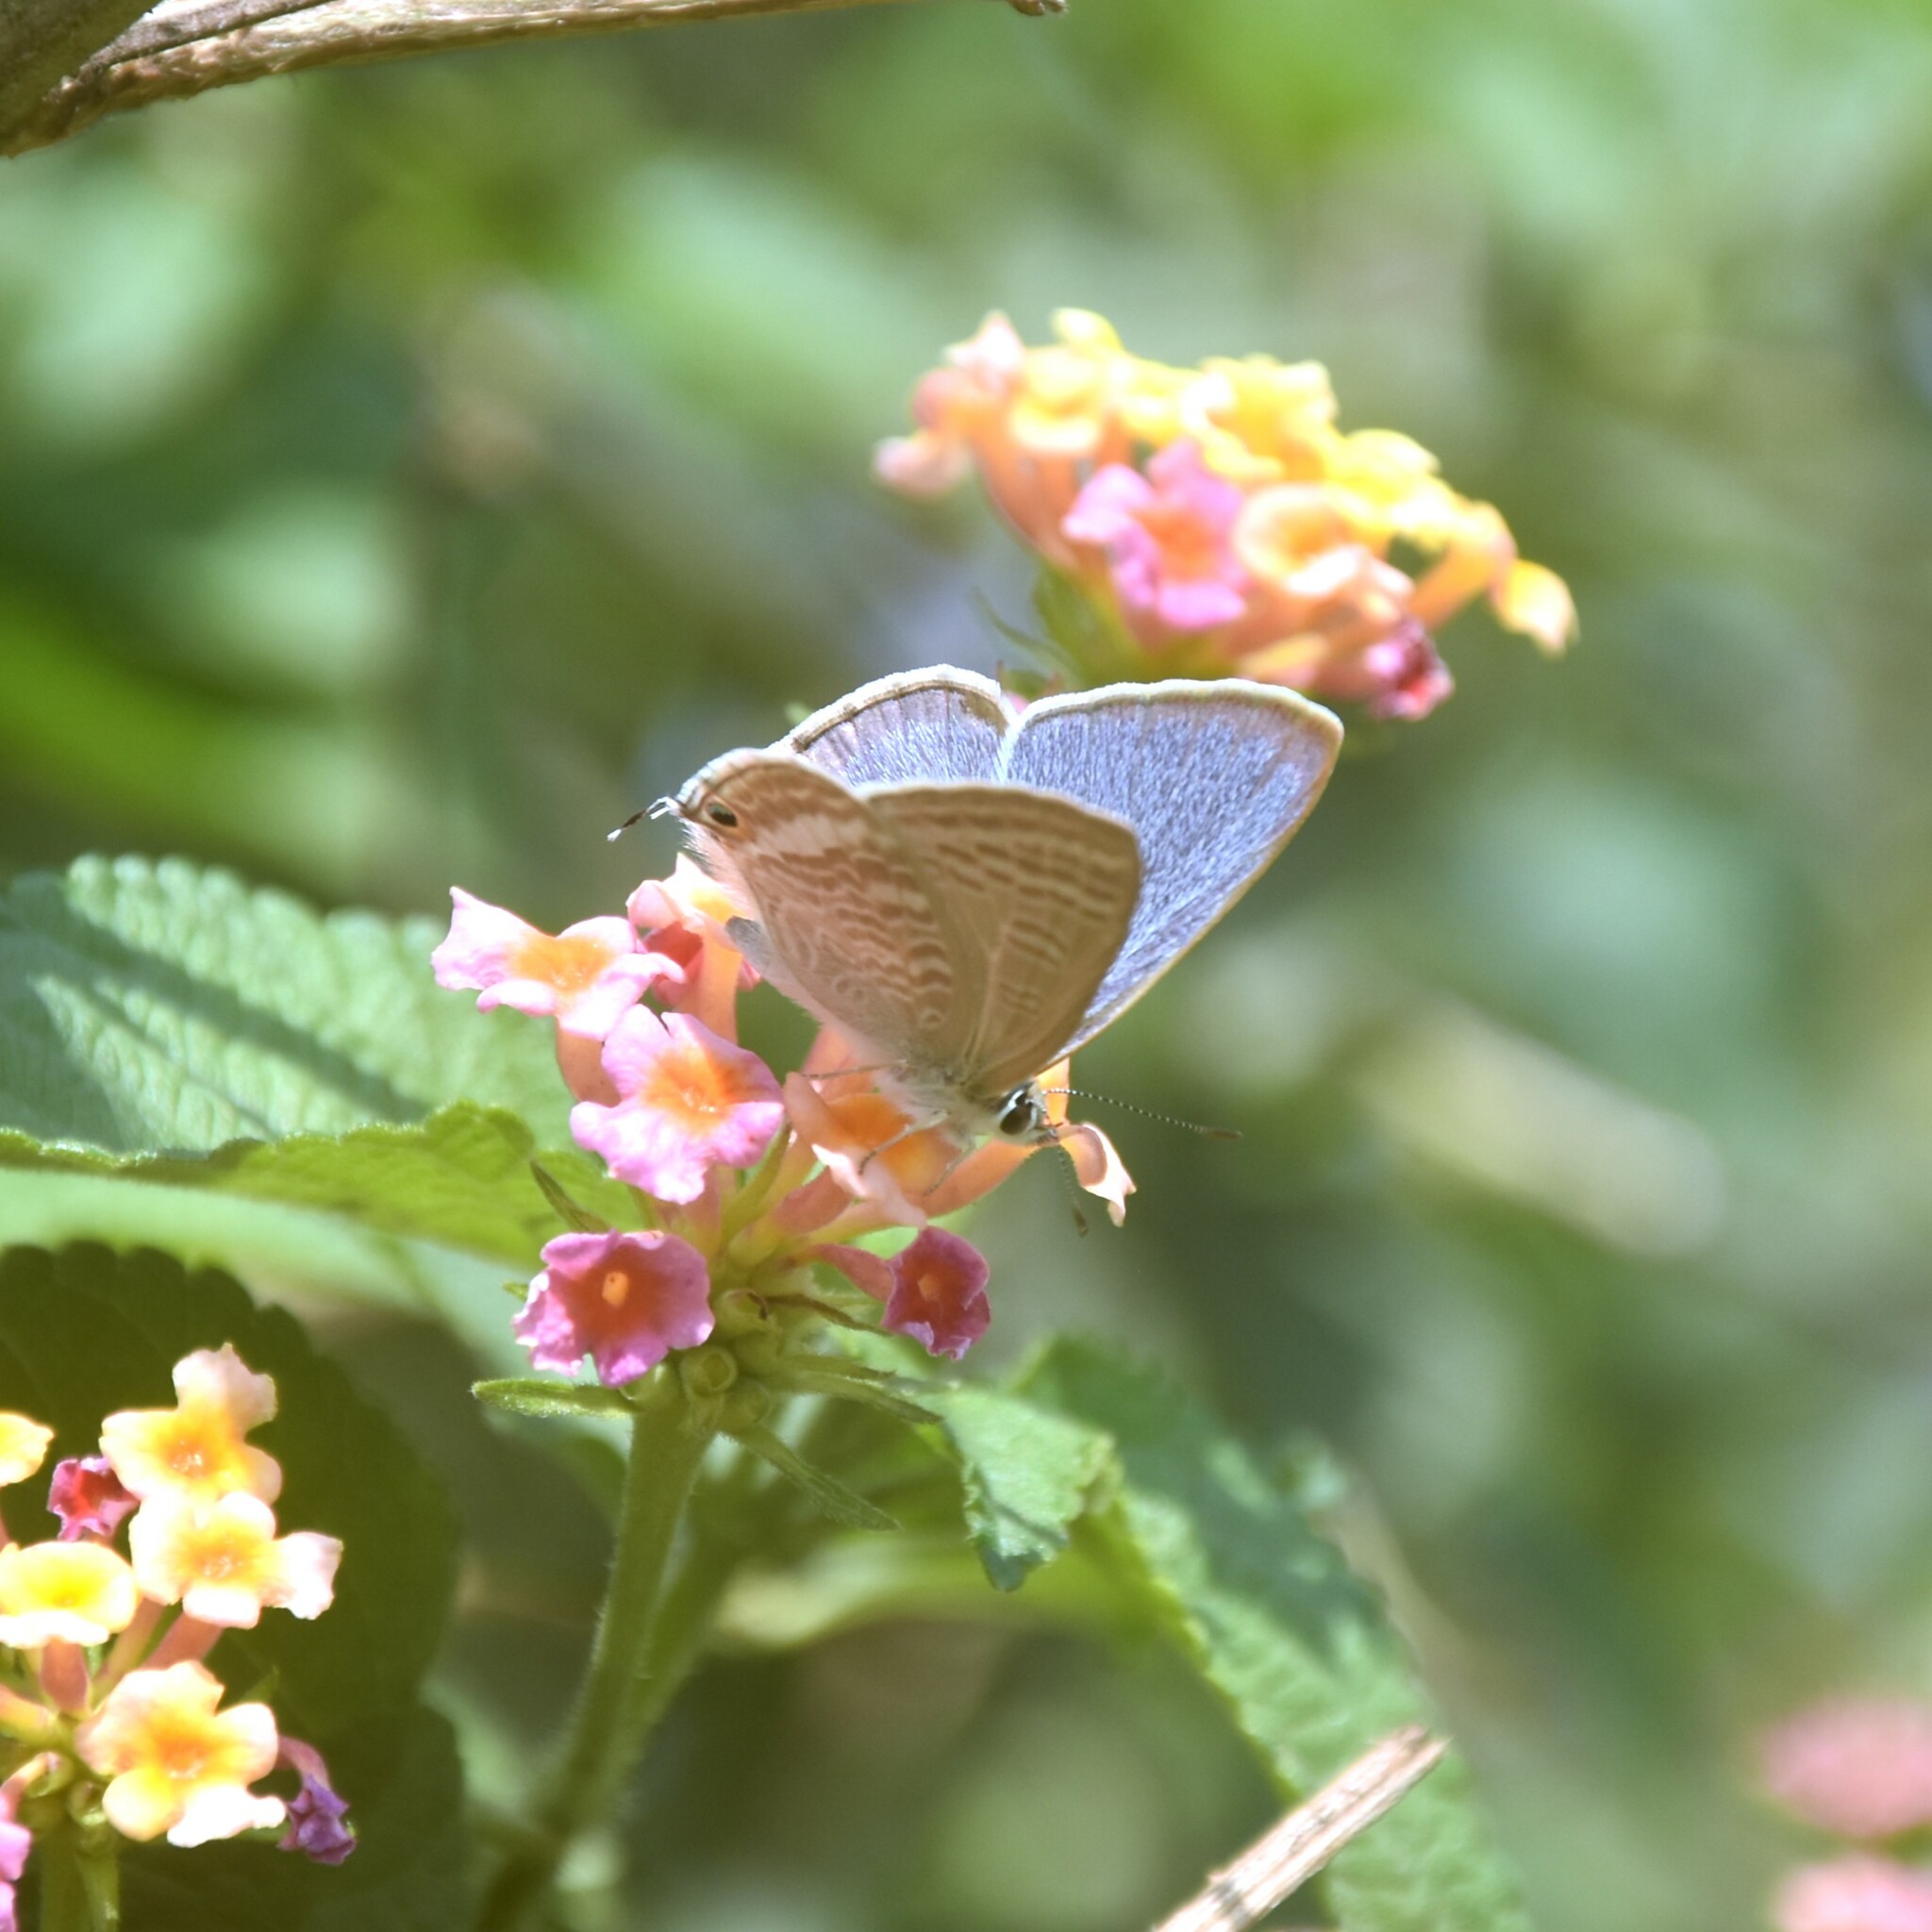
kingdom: Animalia
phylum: Arthropoda
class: Insecta
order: Lepidoptera
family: Lycaenidae
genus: Lampides
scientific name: Lampides boeticus
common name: Long-tailed blue
